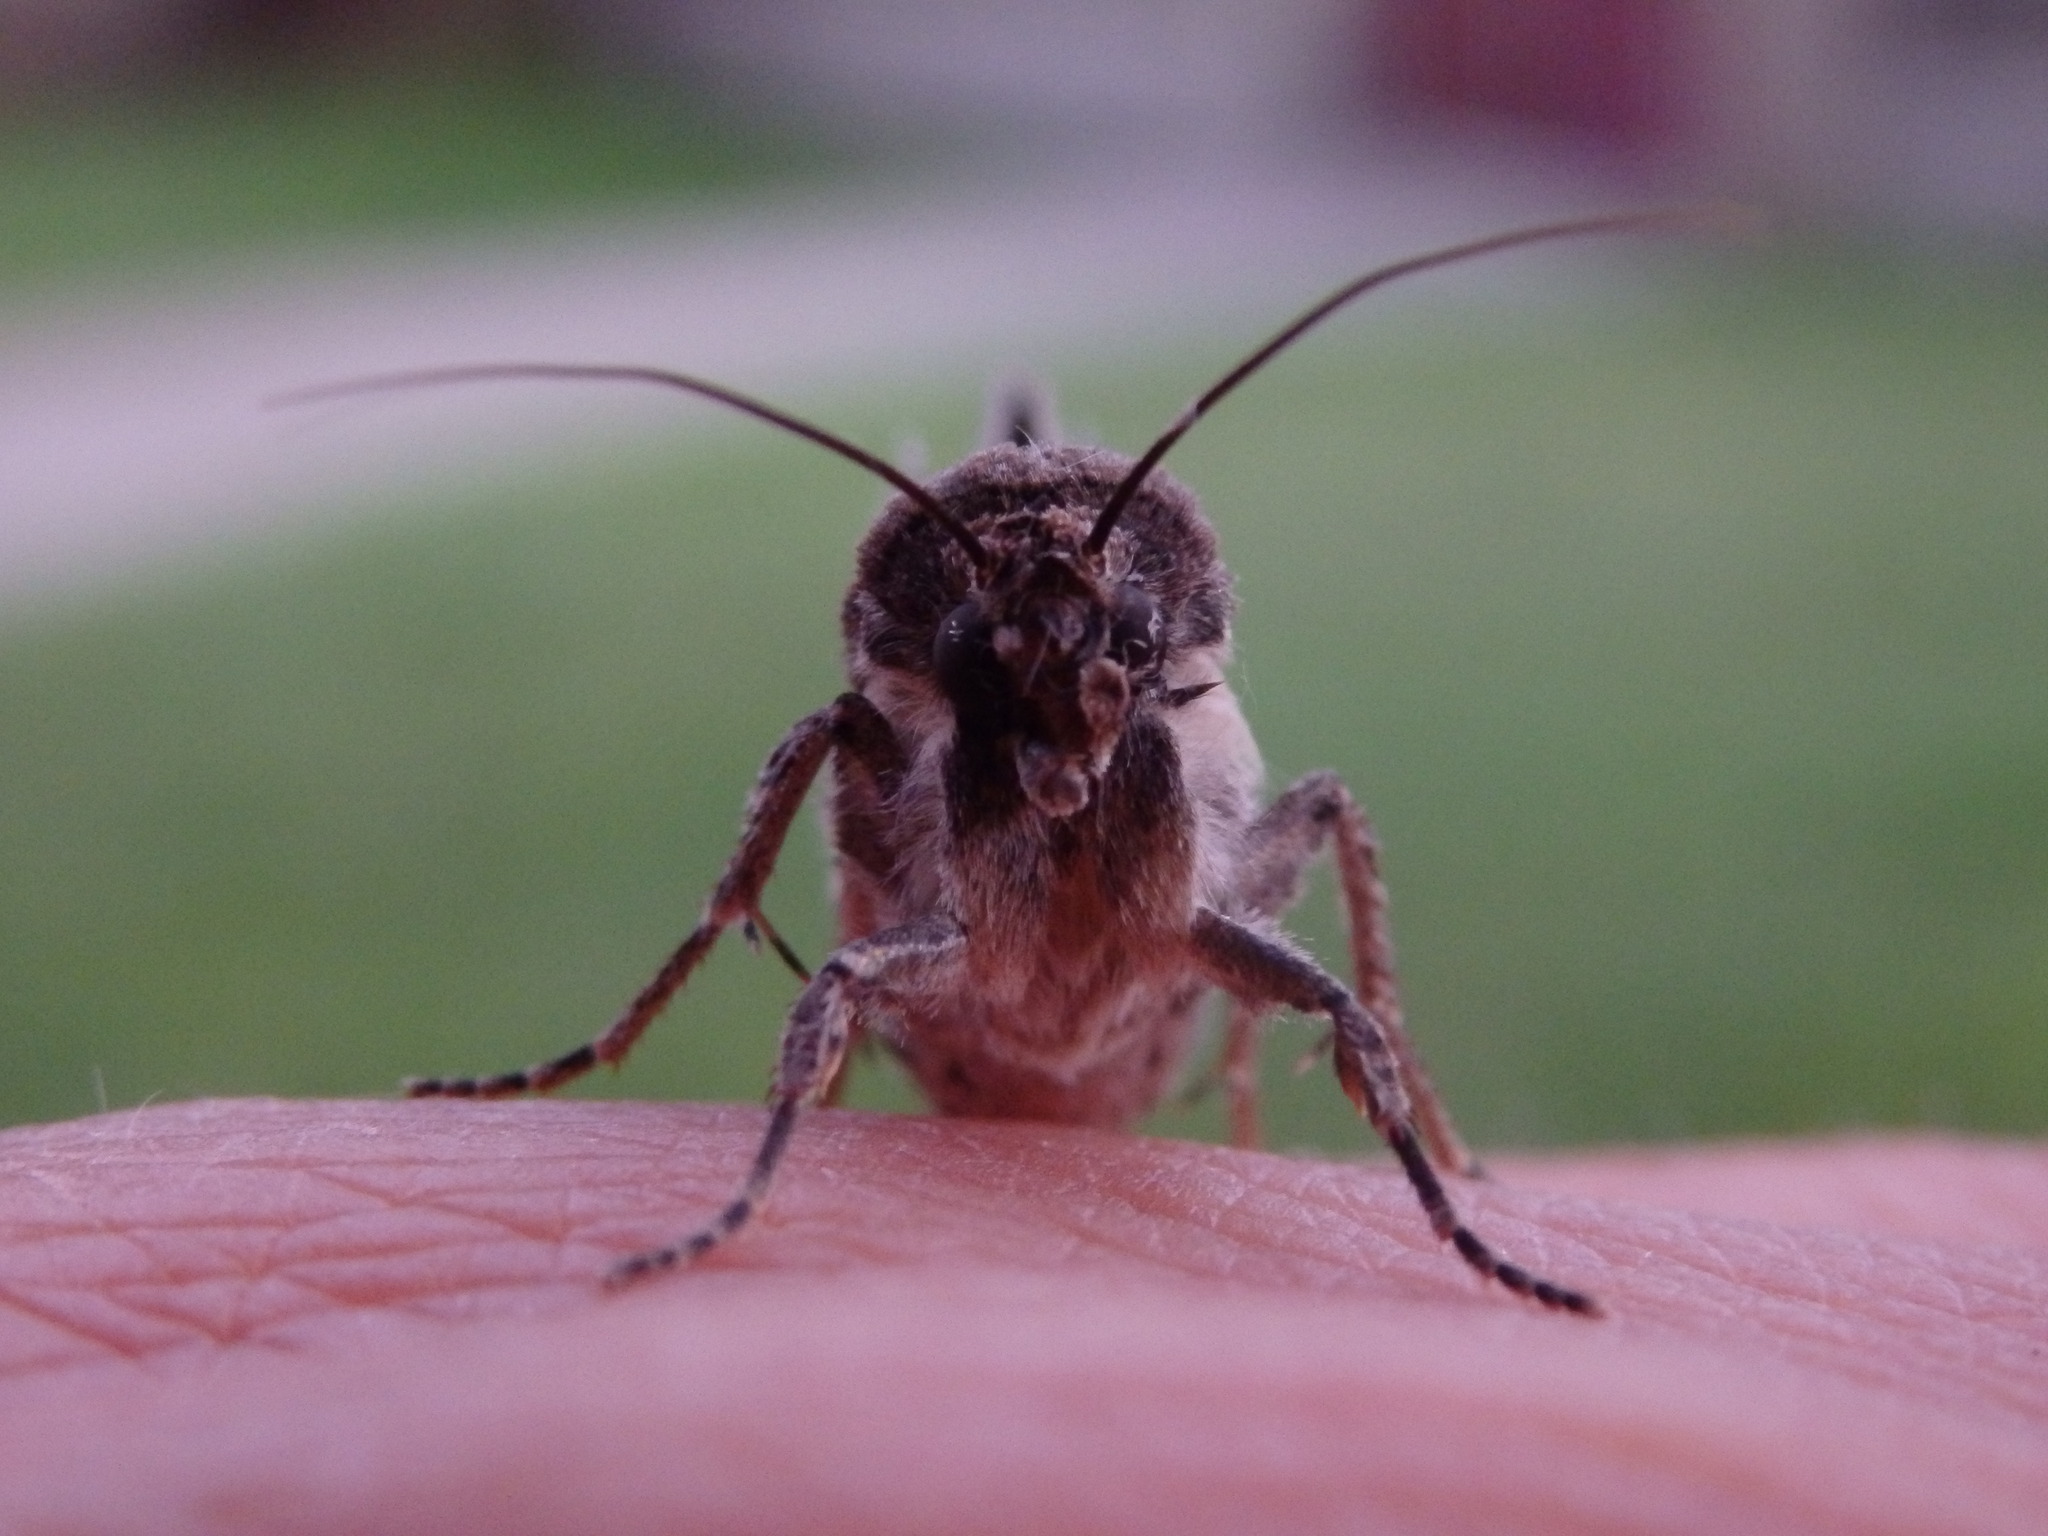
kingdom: Animalia
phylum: Arthropoda
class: Insecta
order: Lepidoptera
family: Noctuidae
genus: Agrotis
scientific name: Agrotis segetum
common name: Turnip moth
